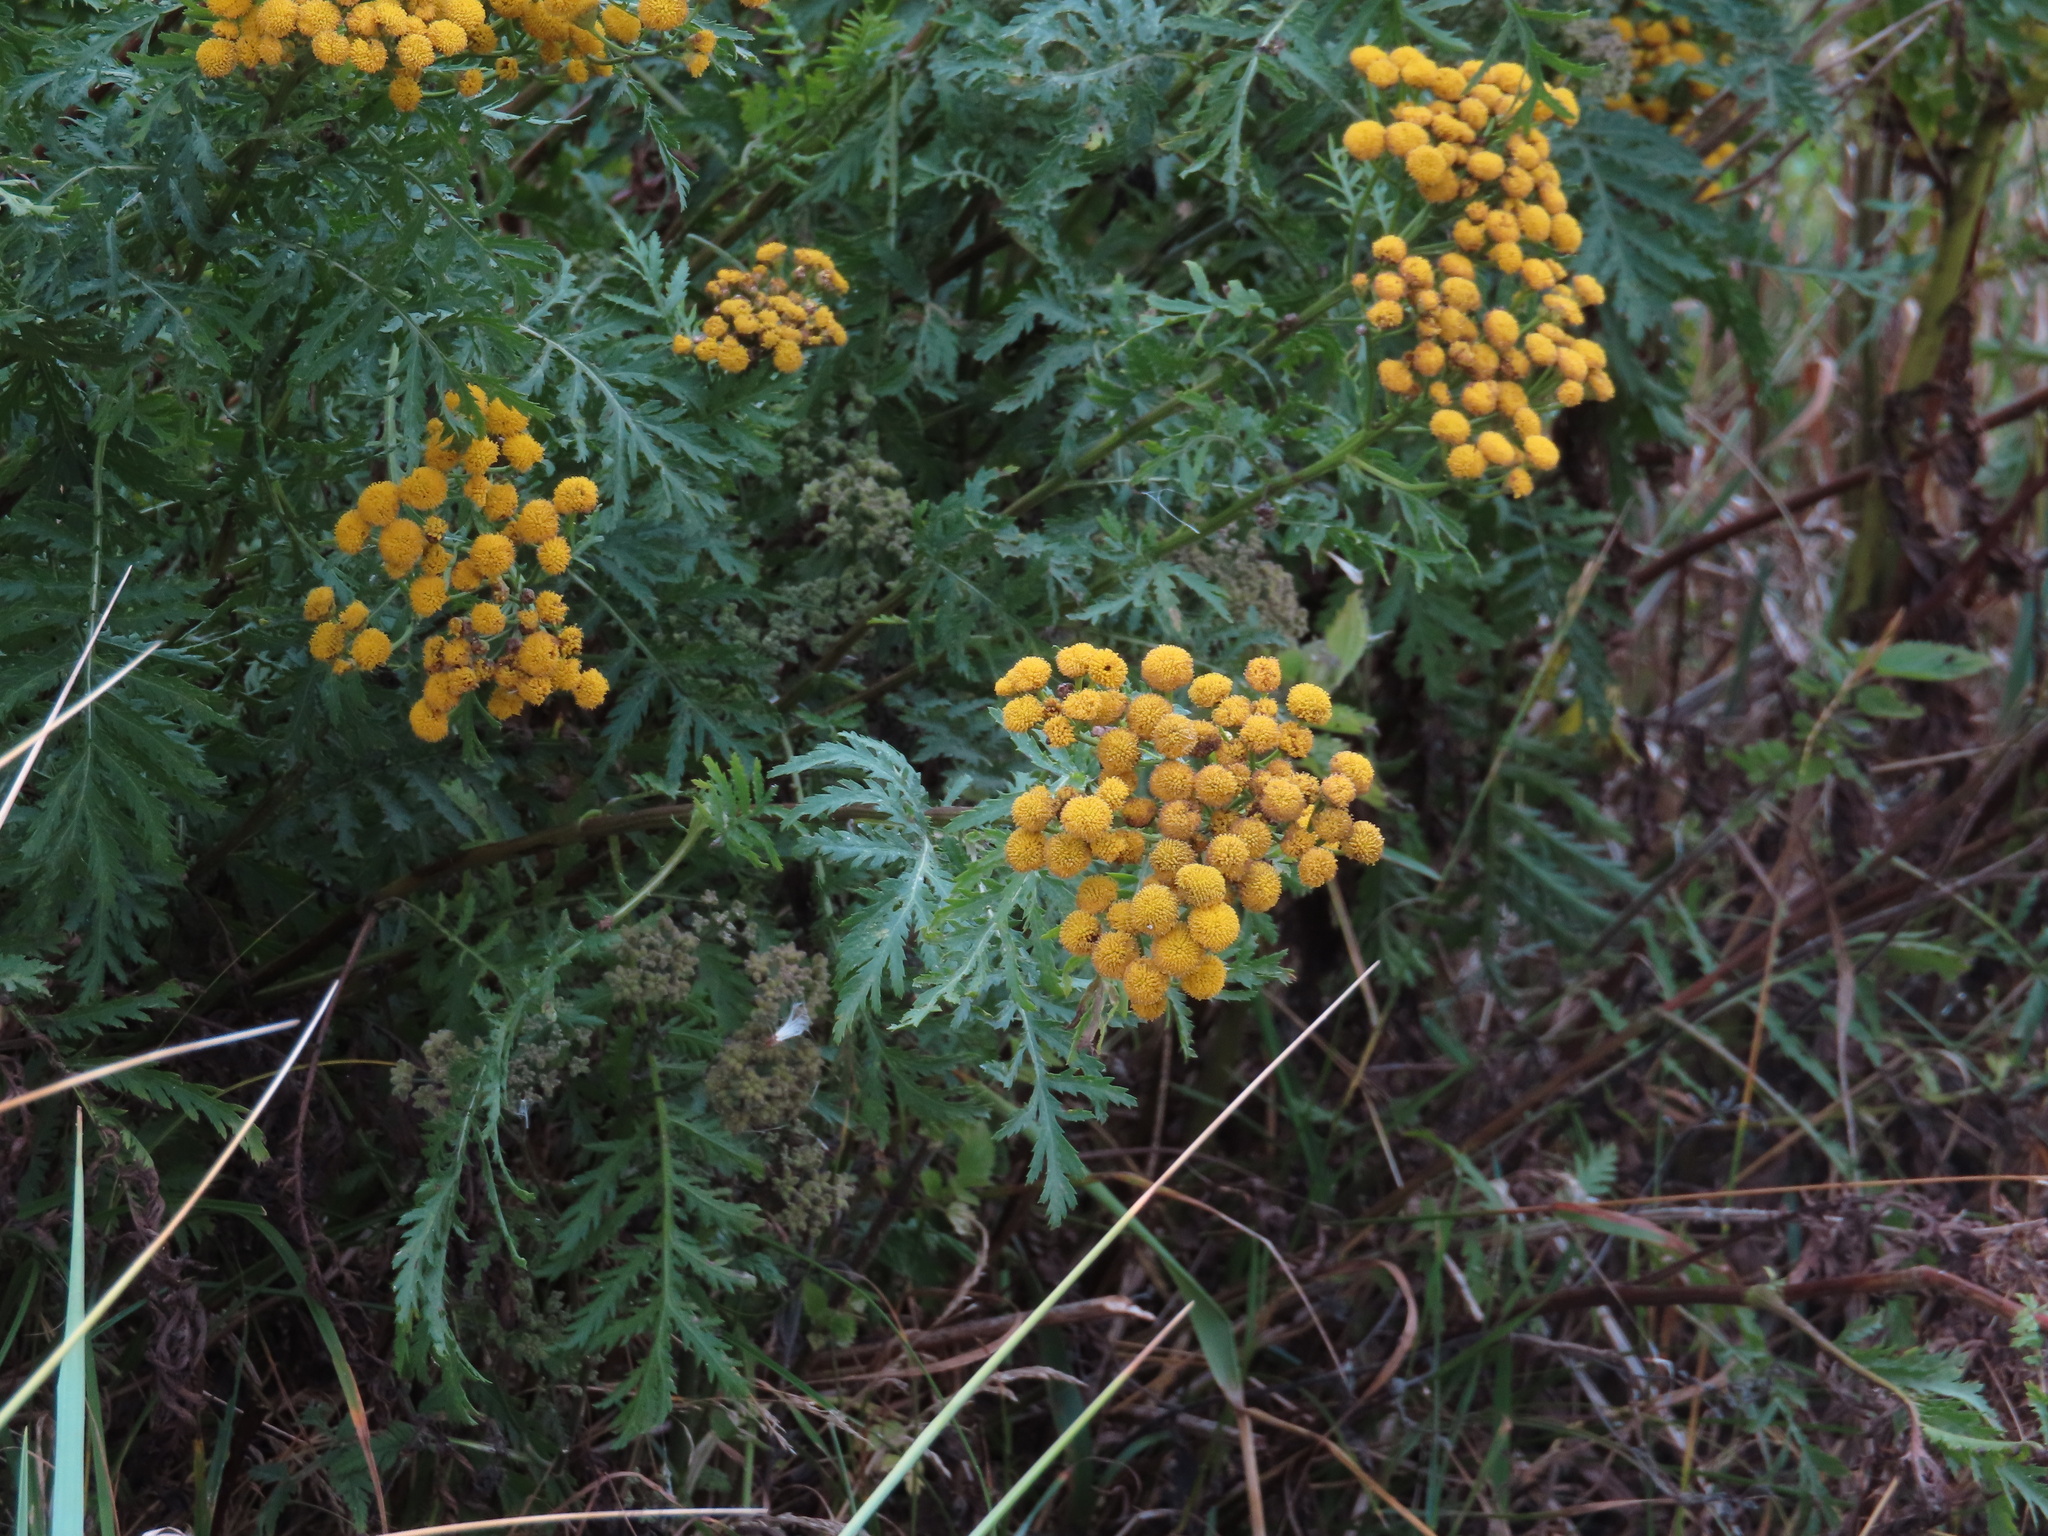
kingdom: Plantae
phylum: Tracheophyta
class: Magnoliopsida
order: Asterales
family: Asteraceae
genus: Tanacetum
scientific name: Tanacetum vulgare
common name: Common tansy
